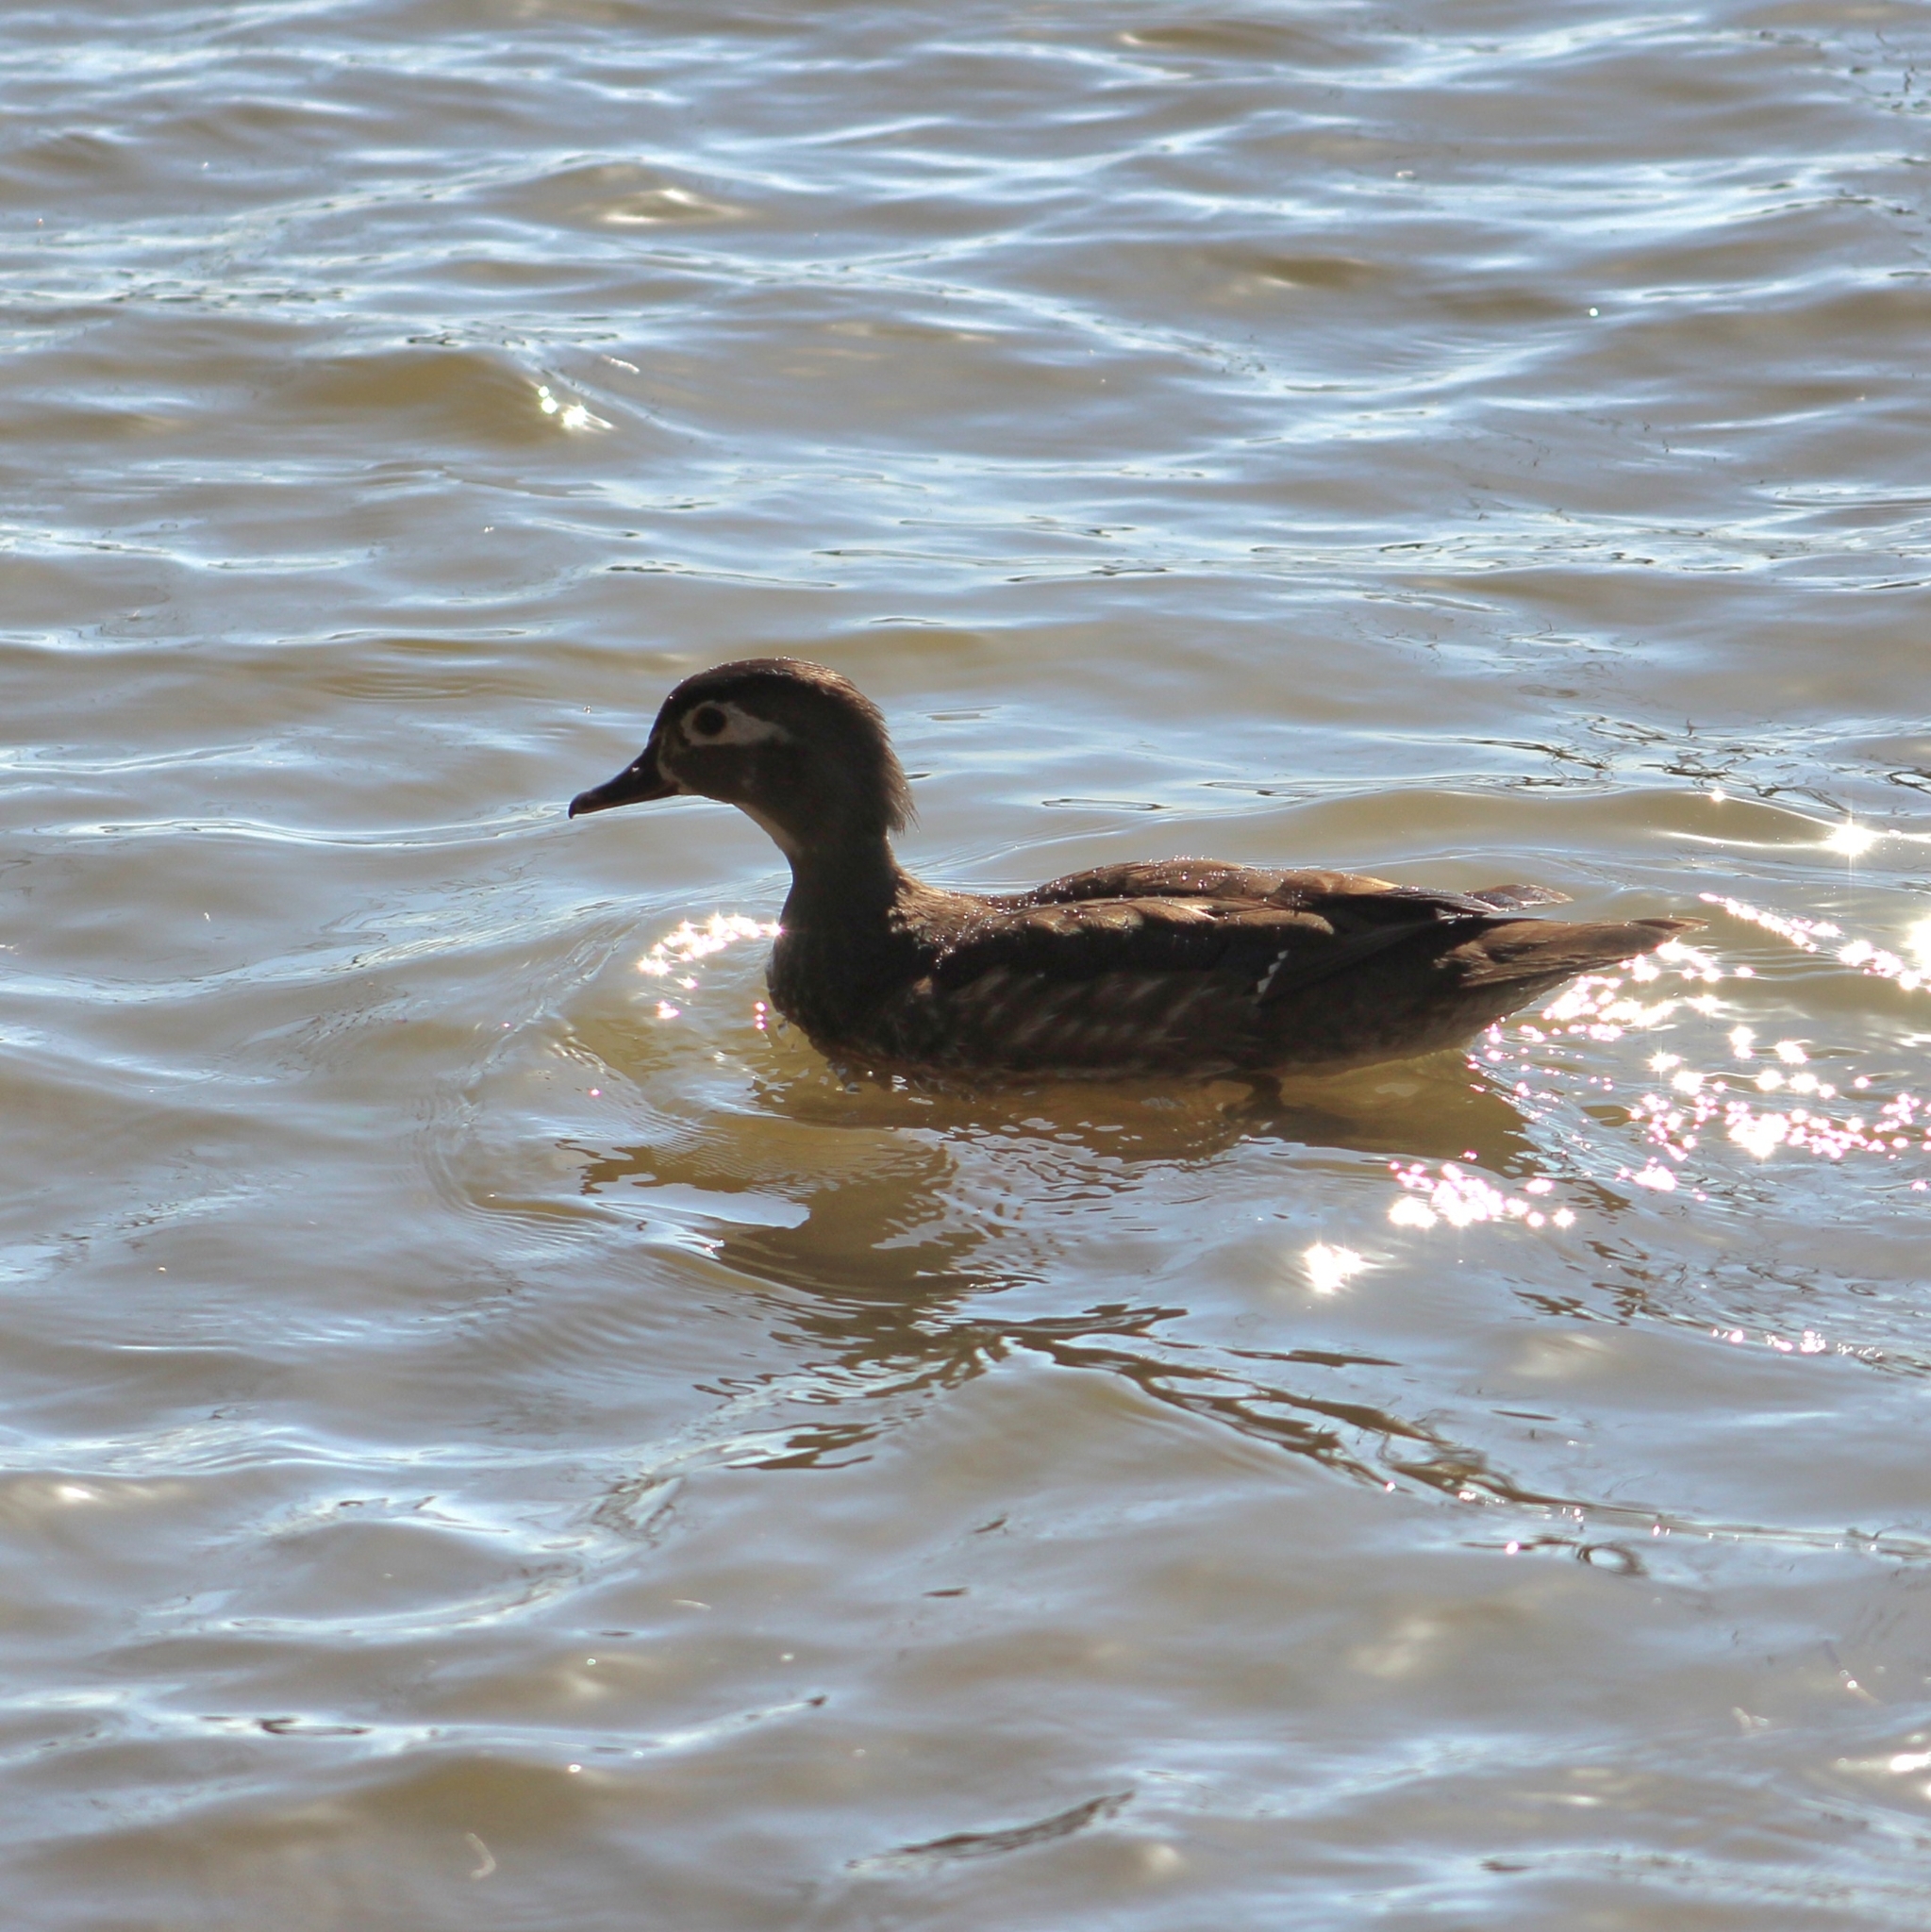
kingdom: Animalia
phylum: Chordata
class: Aves
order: Anseriformes
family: Anatidae
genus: Aix
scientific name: Aix sponsa
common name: Wood duck
